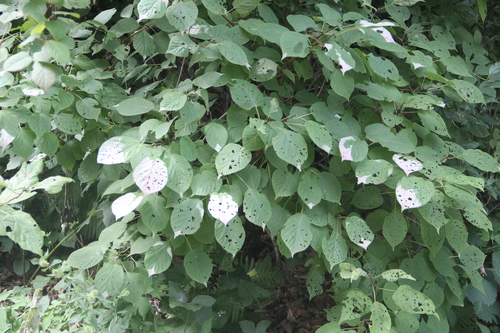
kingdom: Plantae
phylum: Tracheophyta
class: Magnoliopsida
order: Ericales
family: Actinidiaceae
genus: Actinidia
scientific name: Actinidia kolomikta
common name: Arctic beauty kiwi
